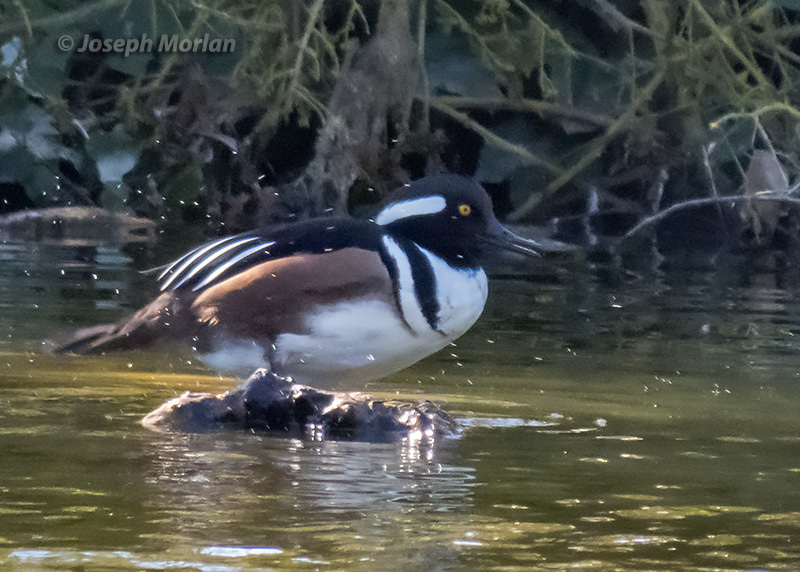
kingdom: Animalia
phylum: Chordata
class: Aves
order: Anseriformes
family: Anatidae
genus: Lophodytes
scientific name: Lophodytes cucullatus
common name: Hooded merganser
